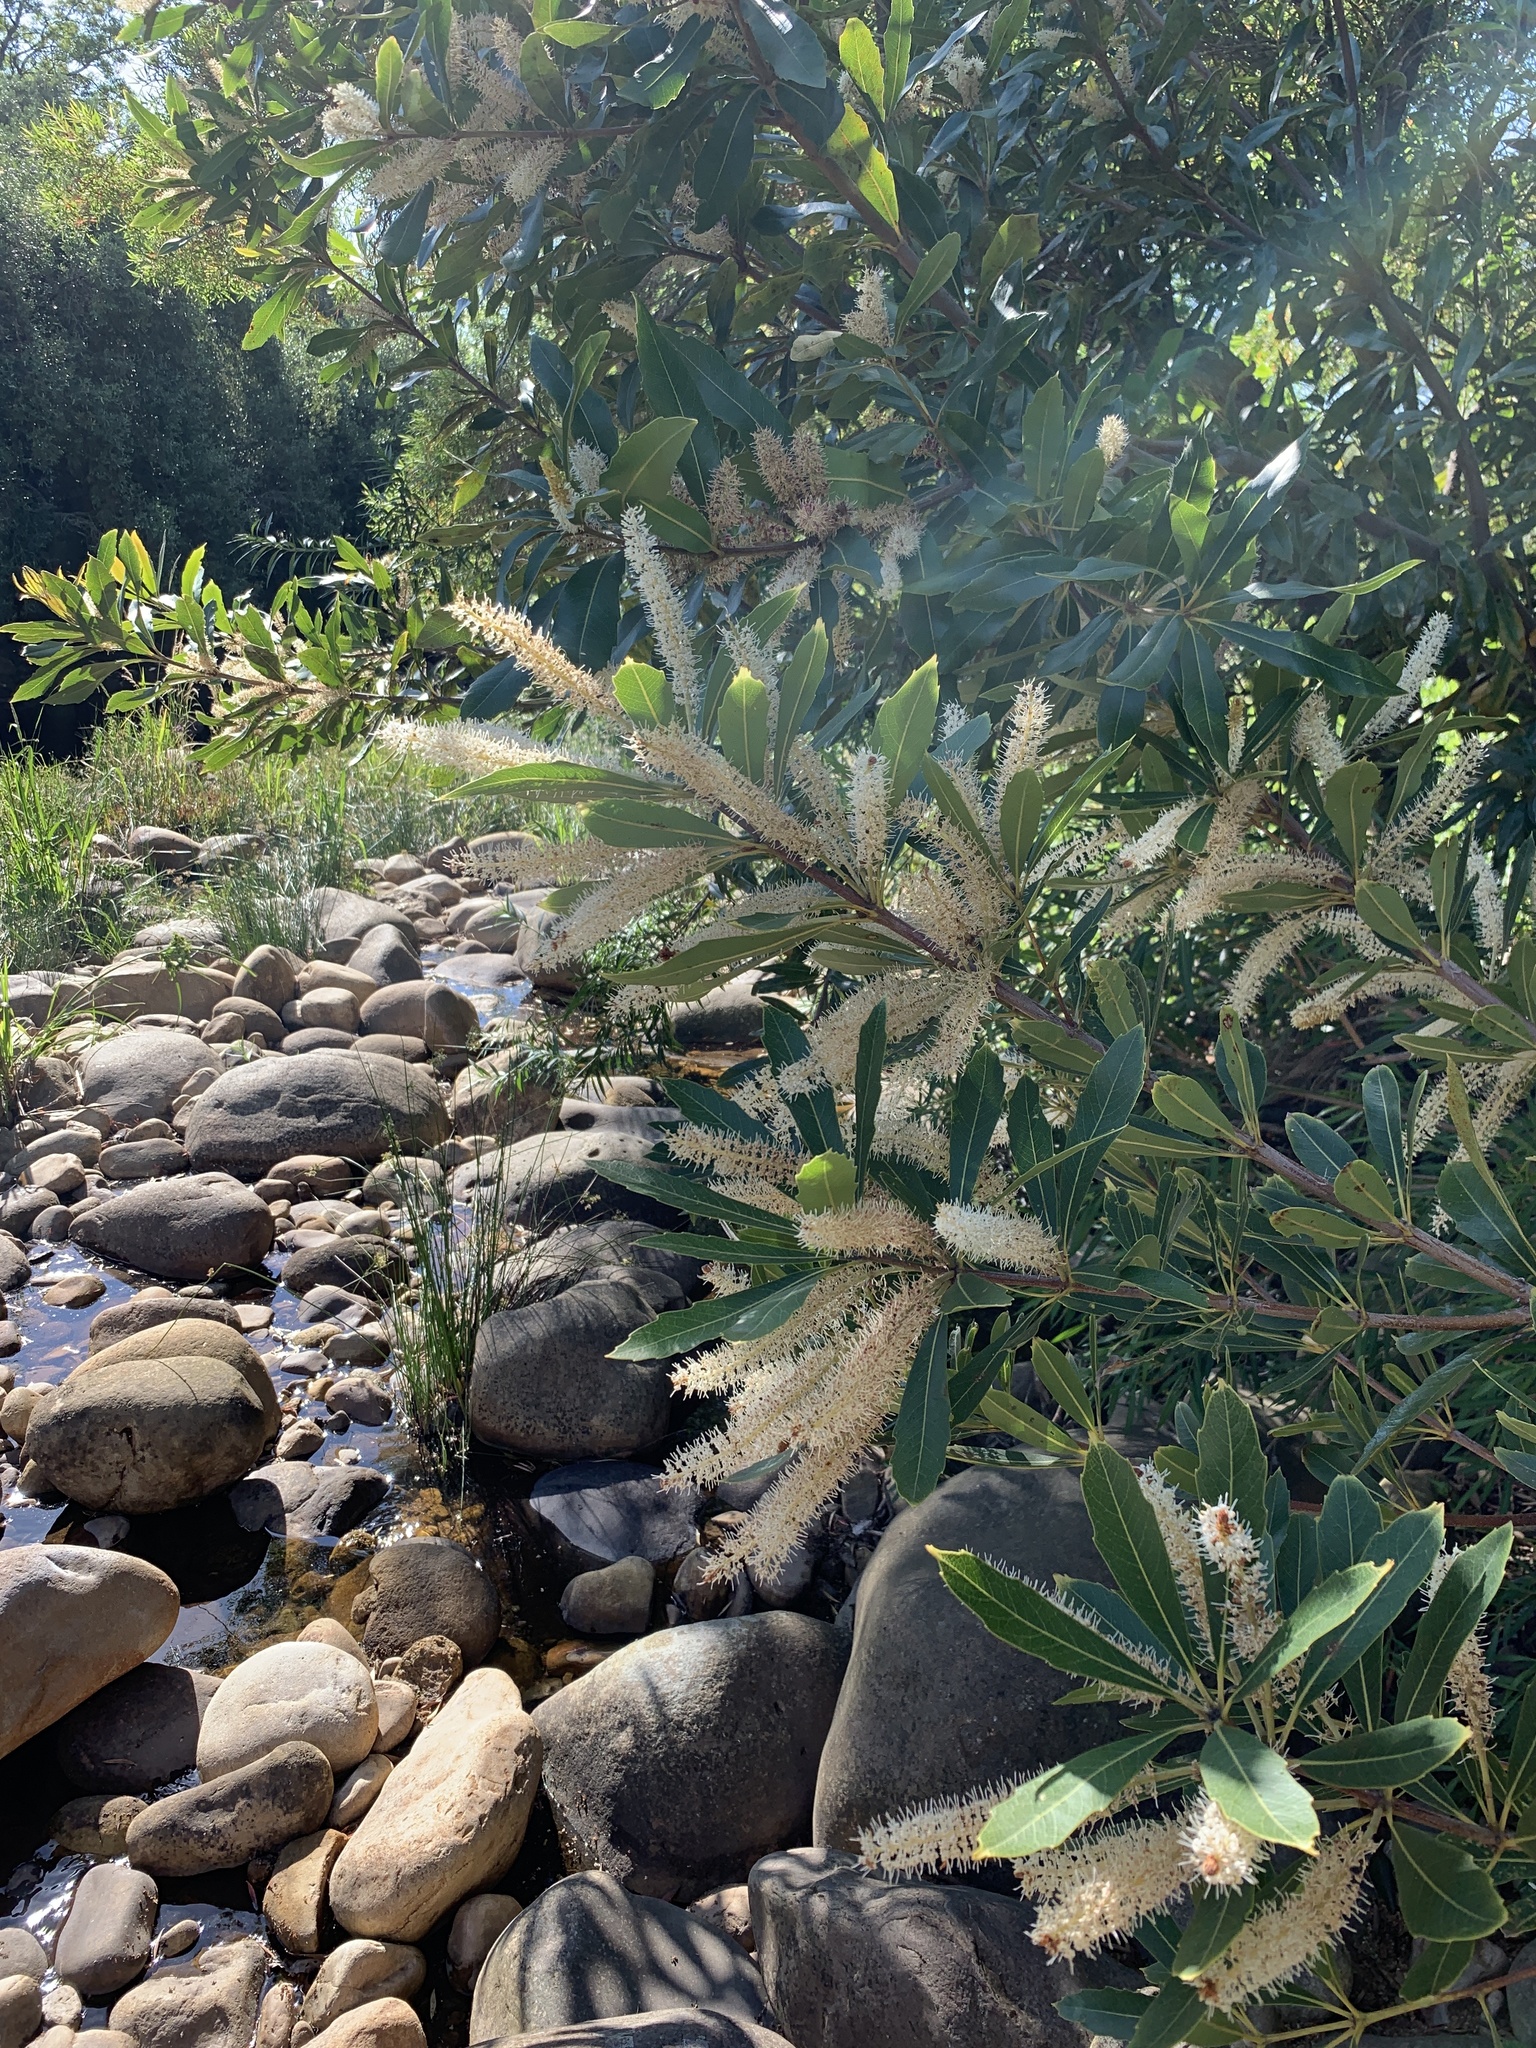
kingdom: Plantae
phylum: Tracheophyta
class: Magnoliopsida
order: Proteales
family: Proteaceae
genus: Brabejum
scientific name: Brabejum stellatifolium
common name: Wild almond
